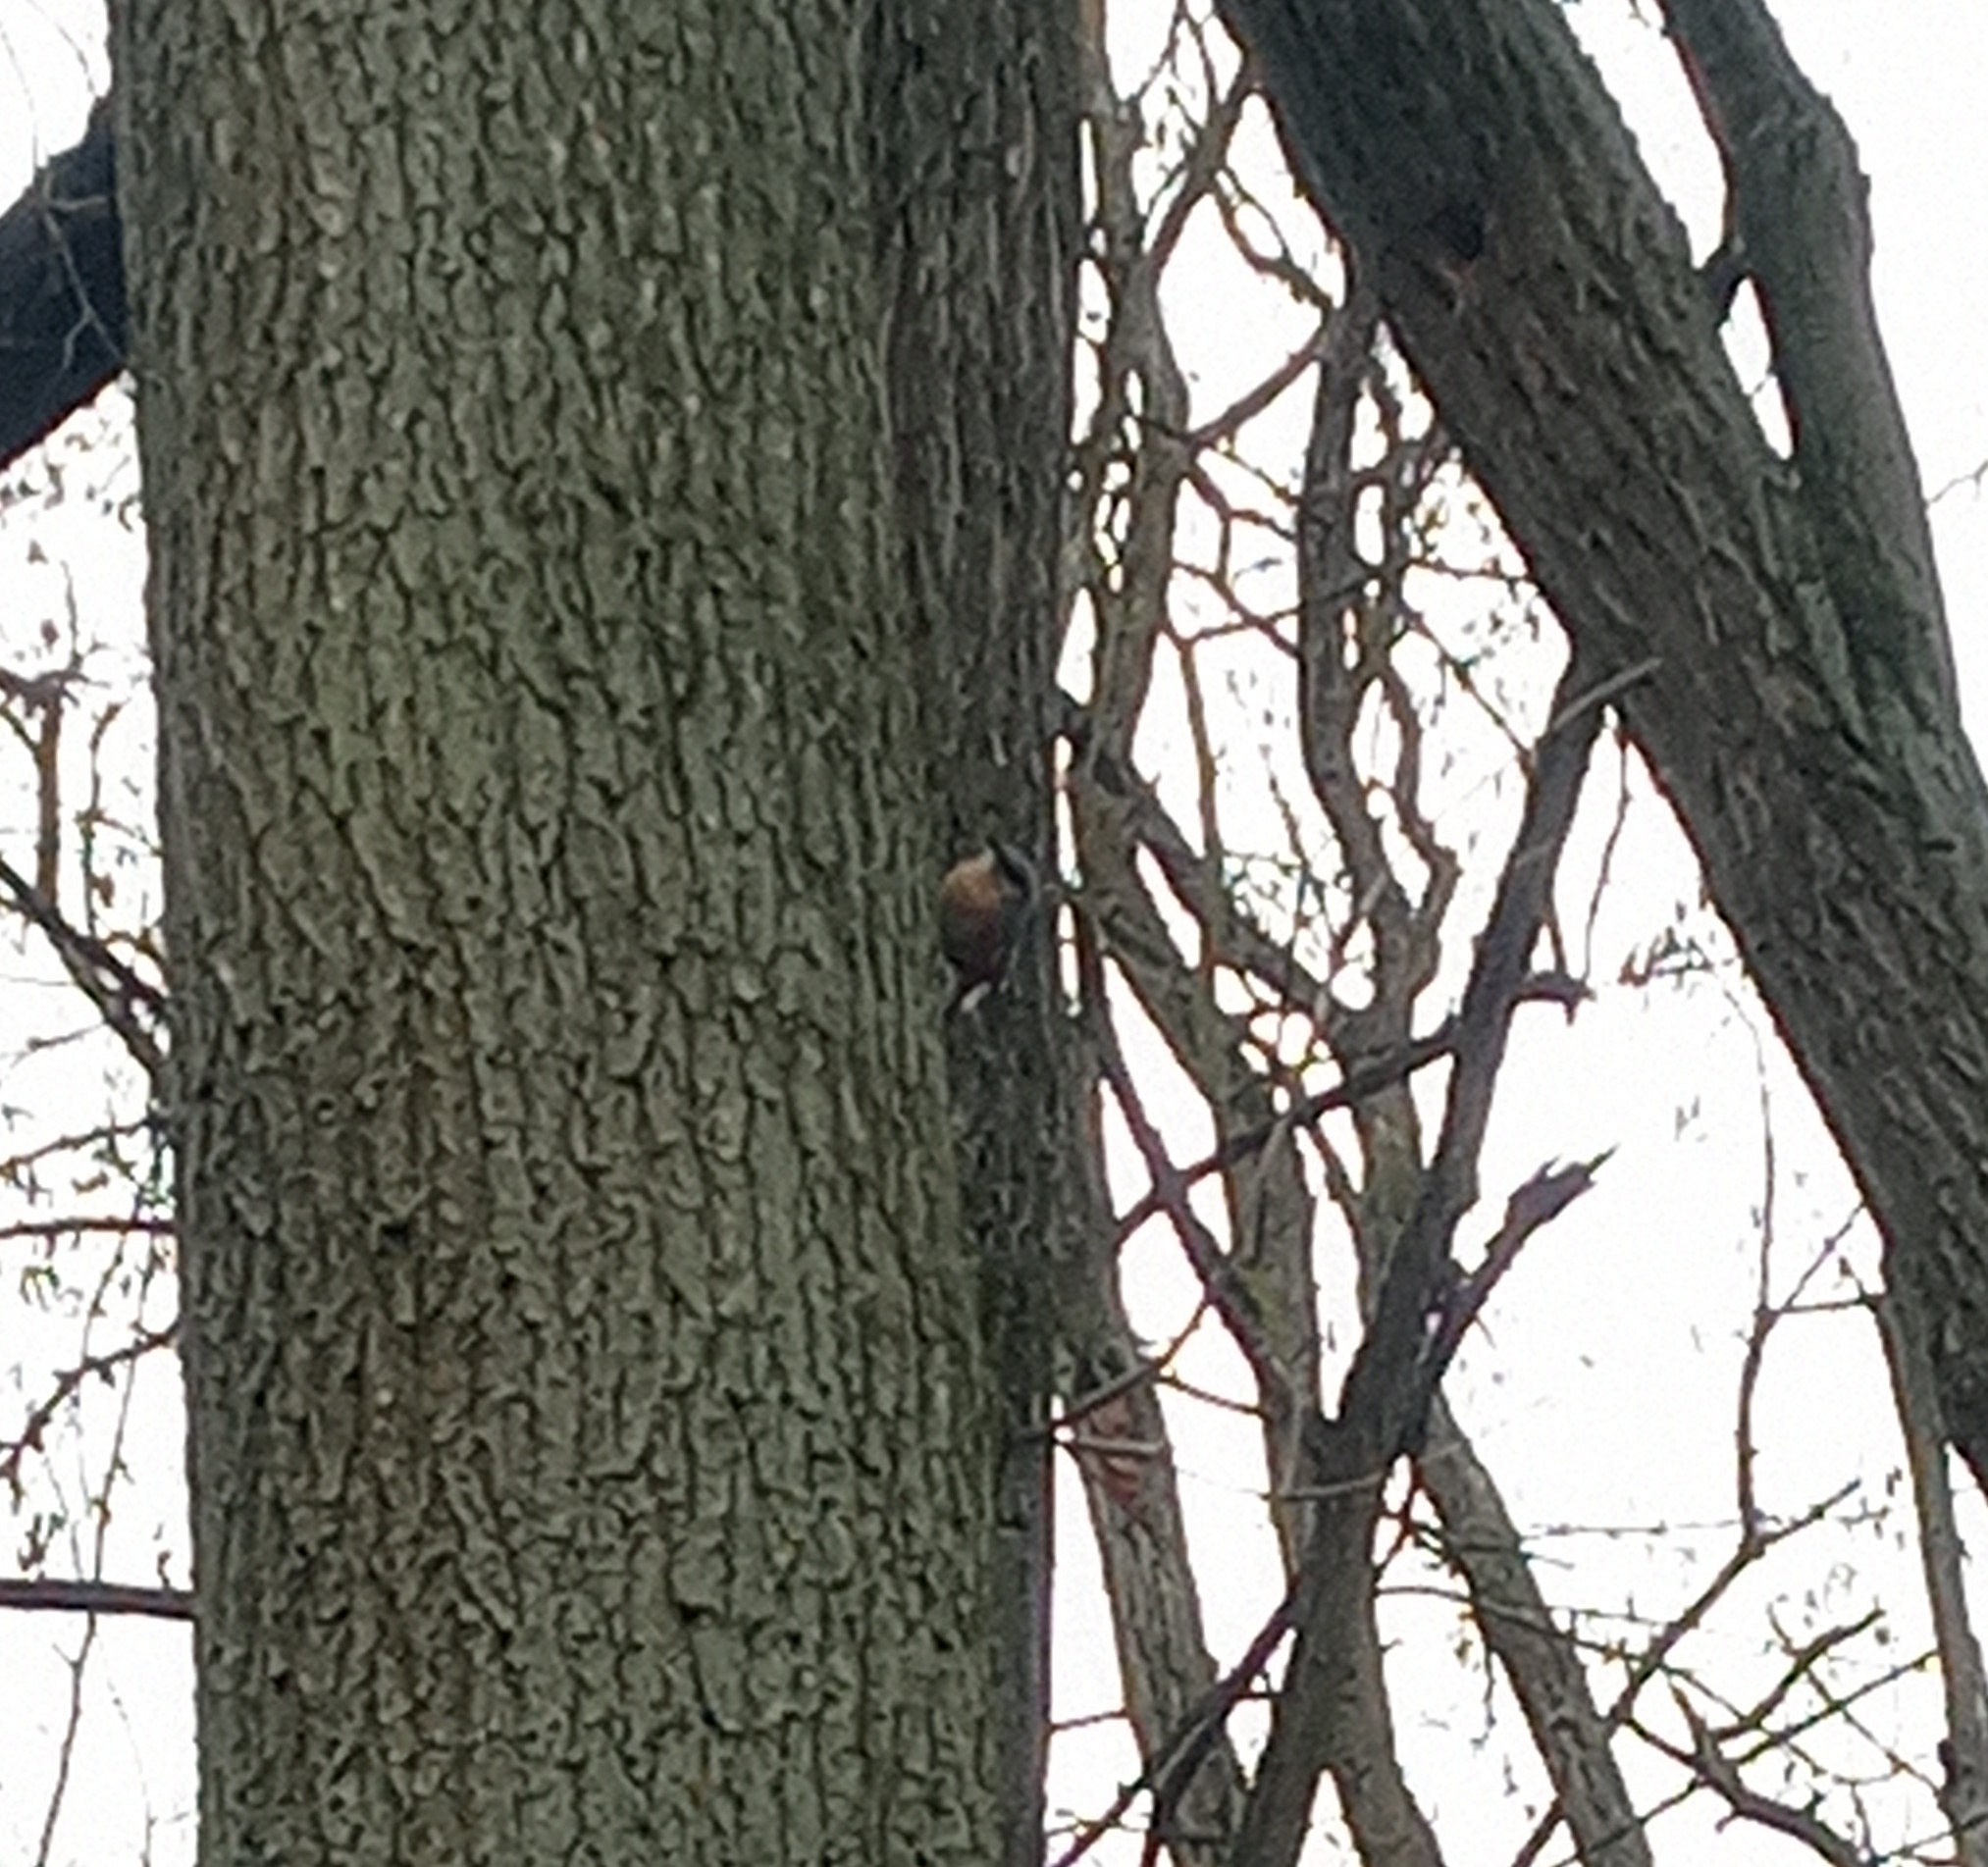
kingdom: Animalia
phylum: Chordata
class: Aves
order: Passeriformes
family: Sittidae
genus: Sitta
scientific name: Sitta europaea
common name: Eurasian nuthatch
